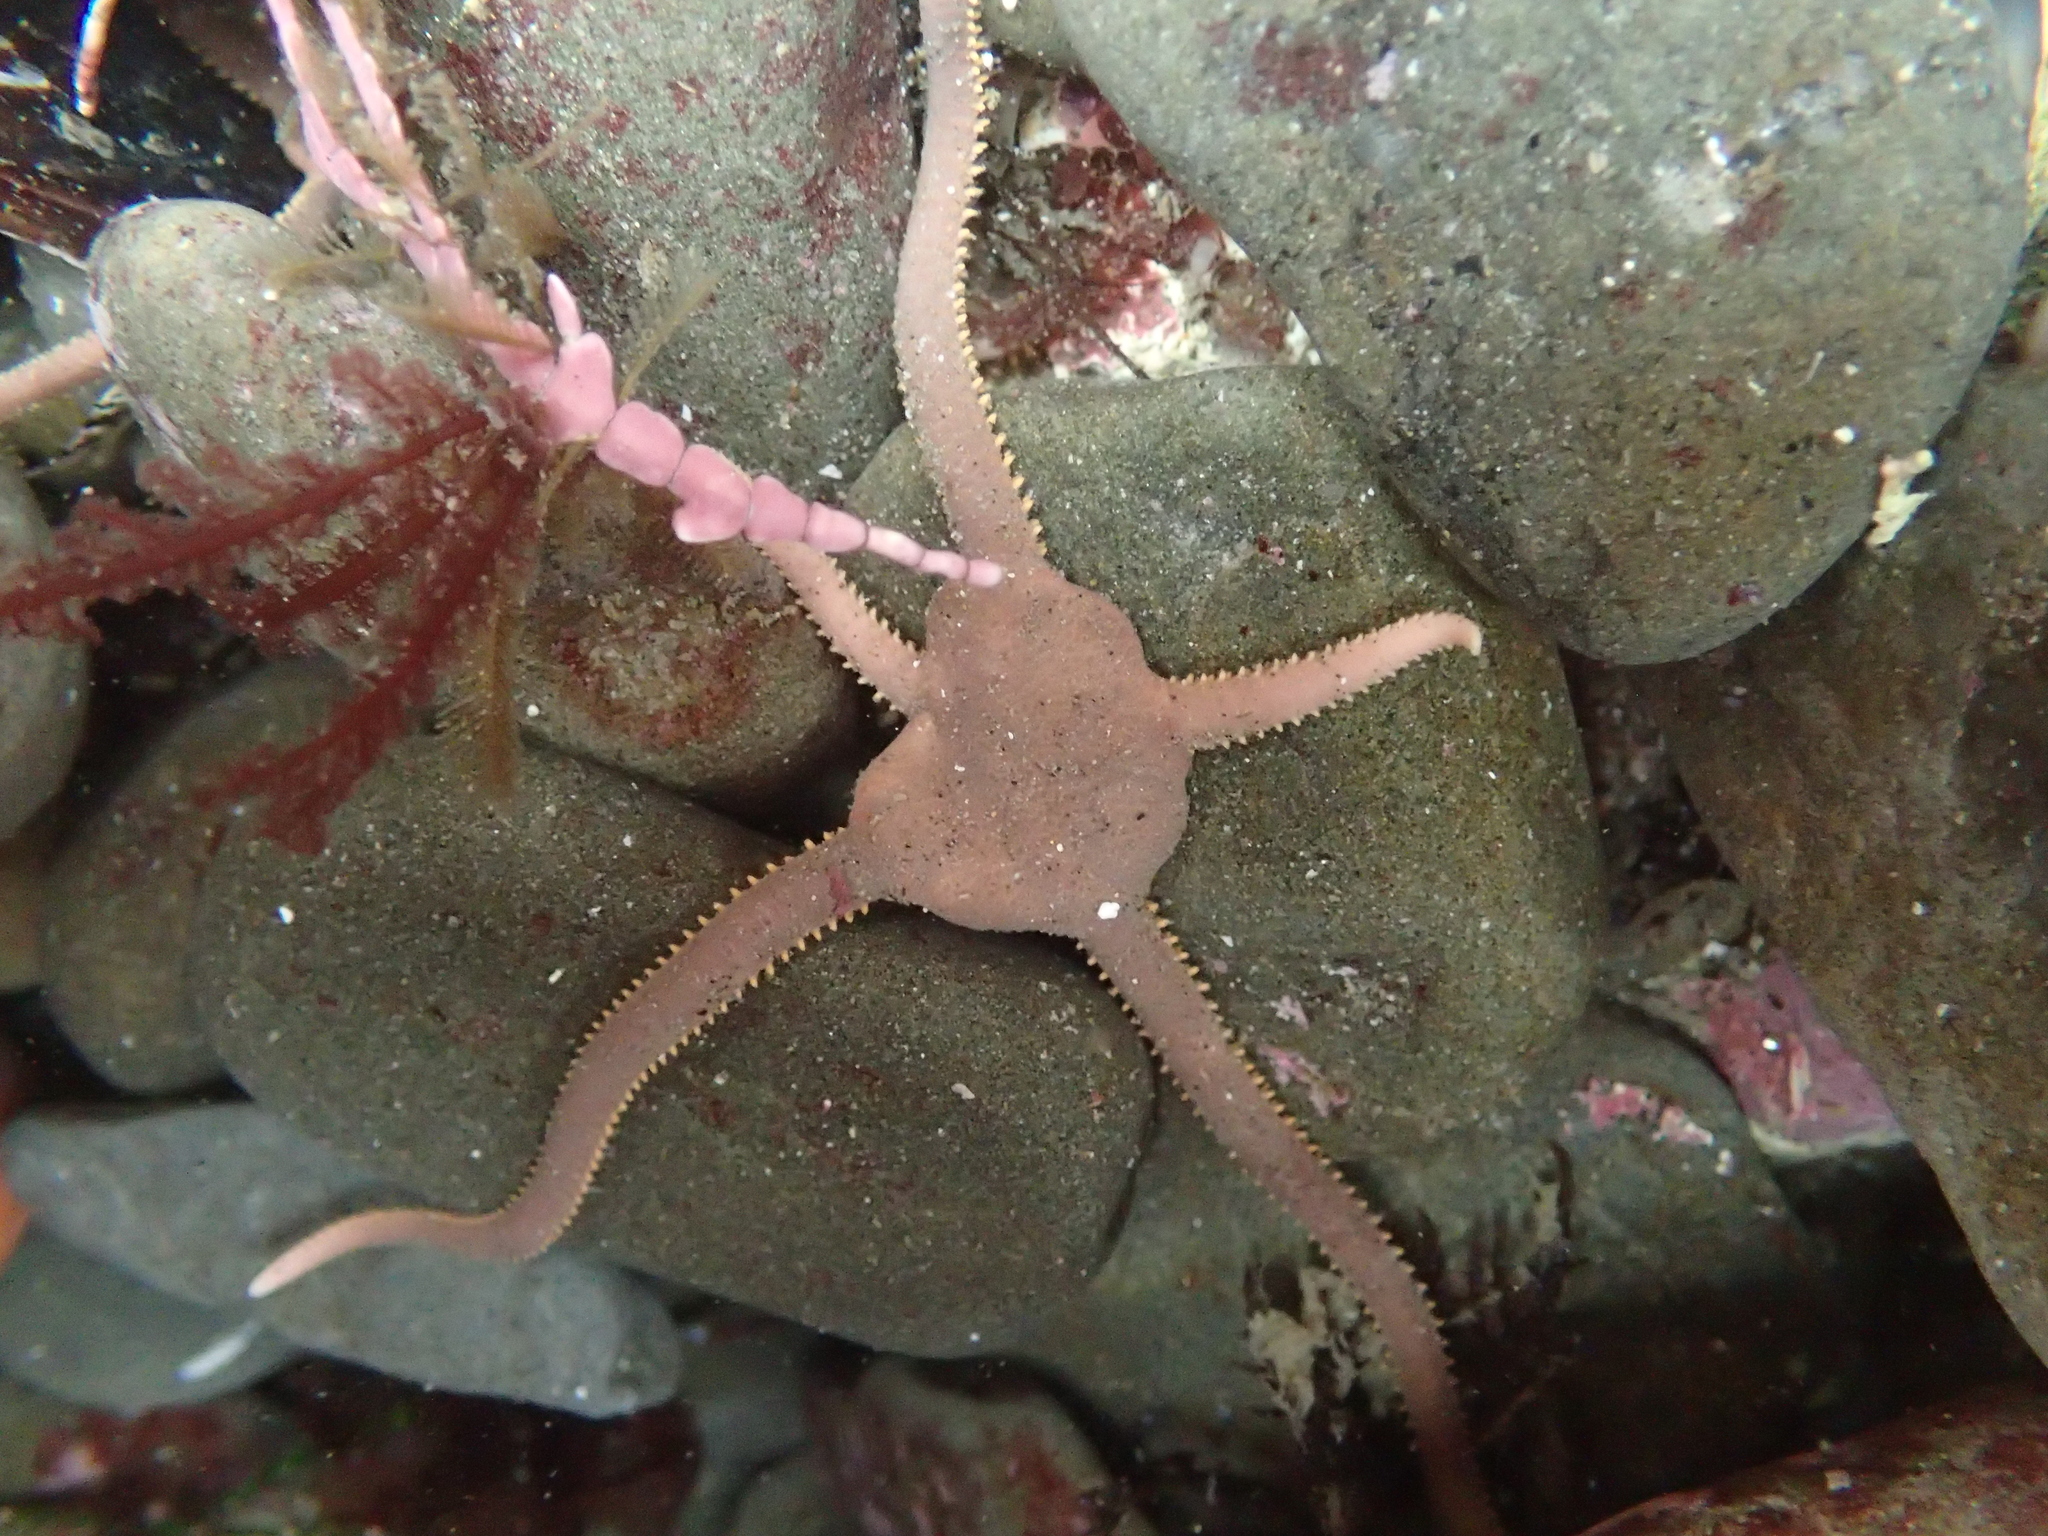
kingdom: Animalia
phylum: Echinodermata
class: Ophiuroidea
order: Amphilepidida
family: Hemieuryalidae
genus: Ophioplocus
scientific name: Ophioplocus esmarki
